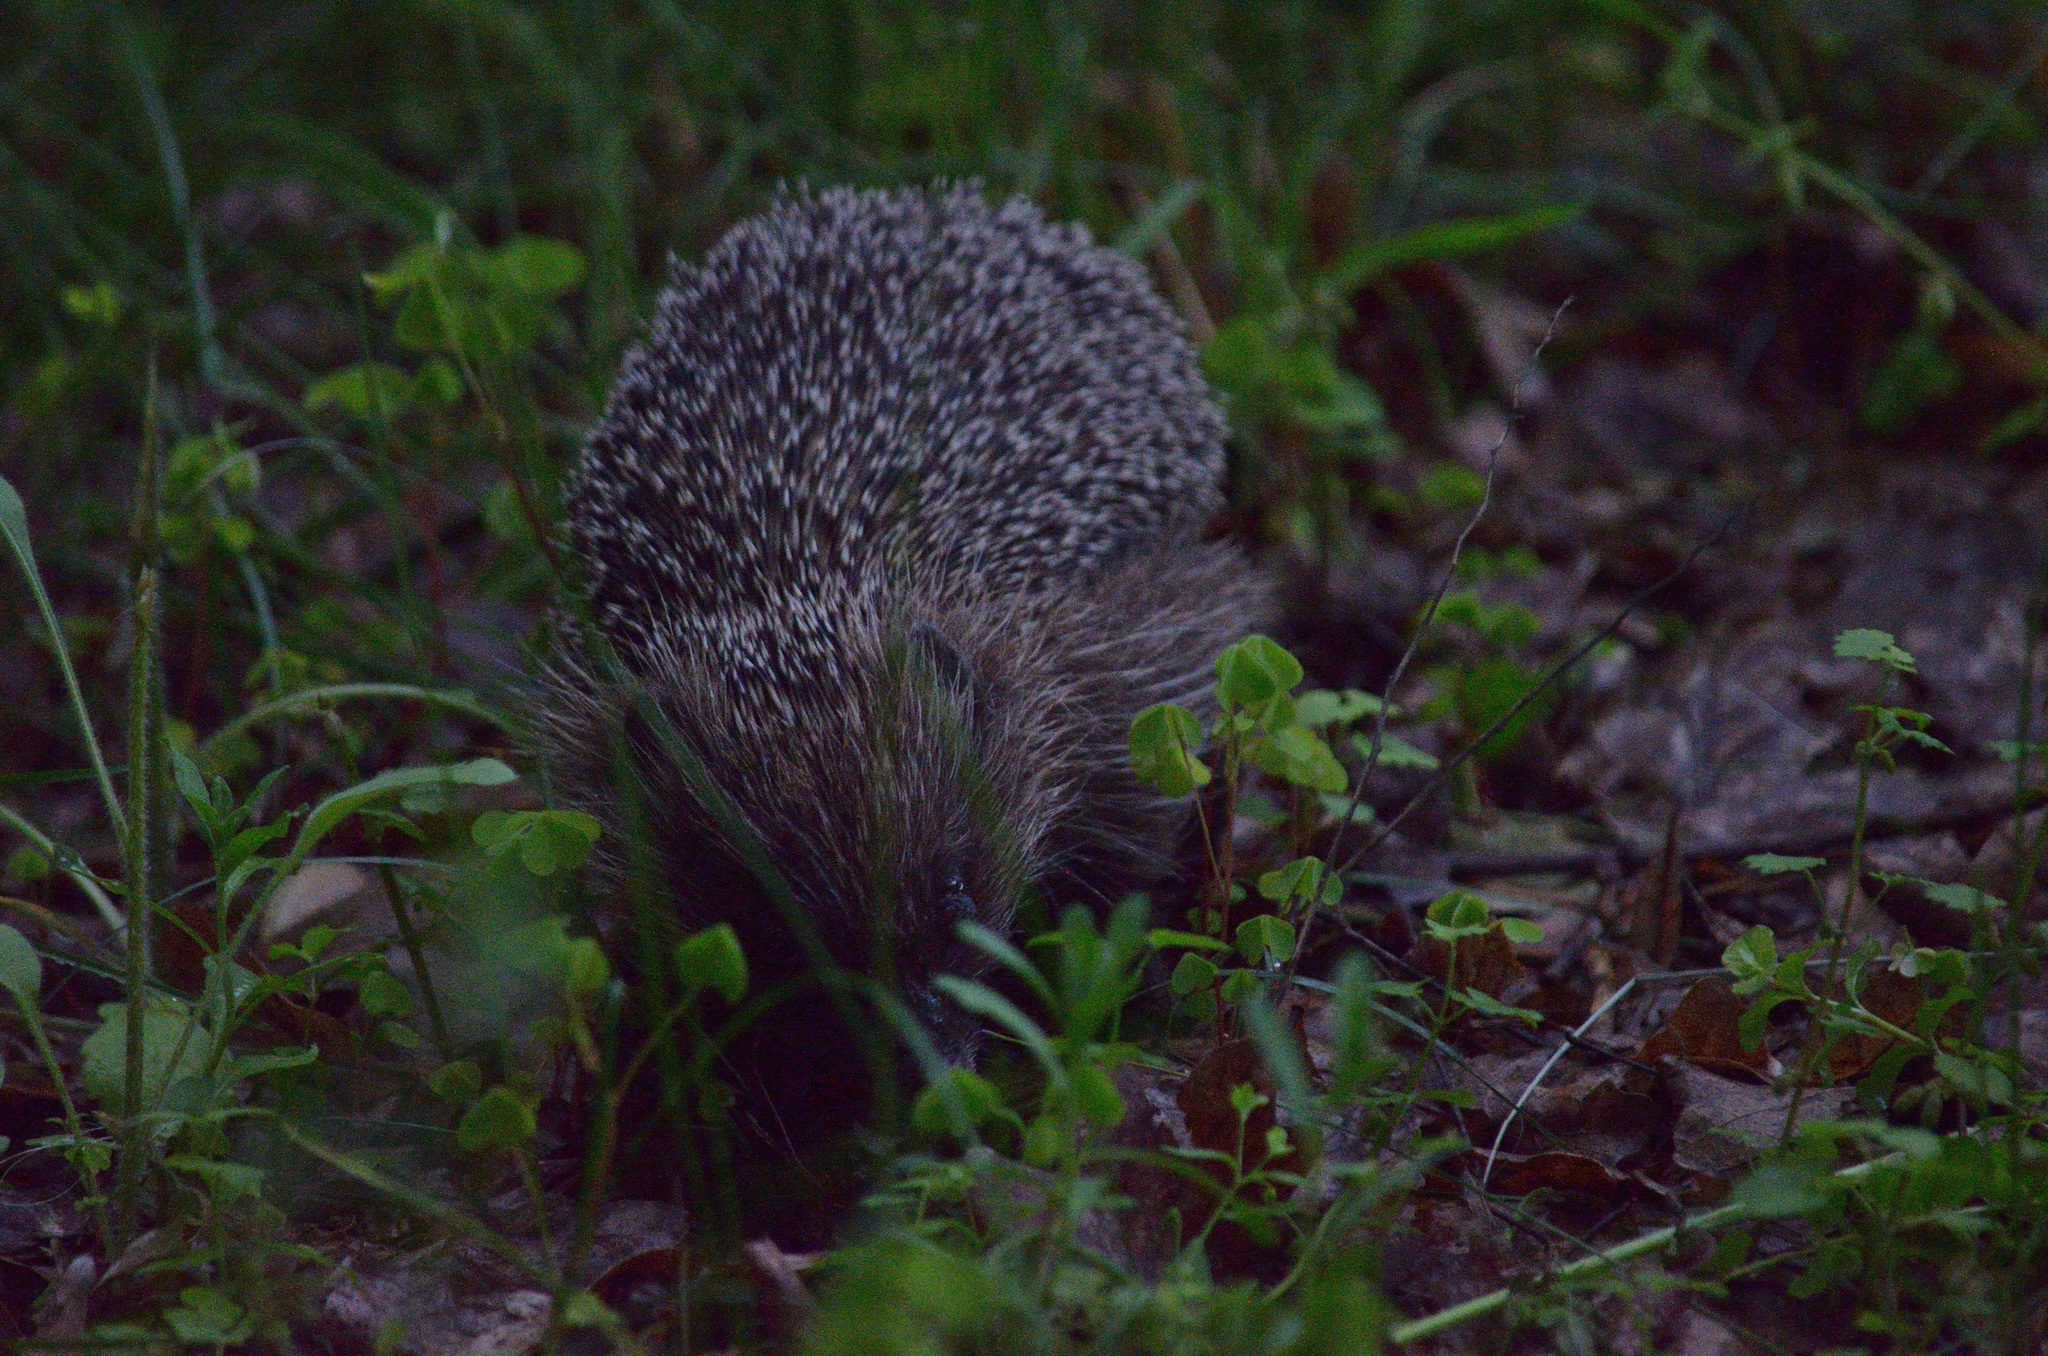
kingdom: Animalia
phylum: Chordata
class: Mammalia
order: Erinaceomorpha
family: Erinaceidae
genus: Erinaceus
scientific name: Erinaceus roumanicus
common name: Northern white-breasted hedgehog
